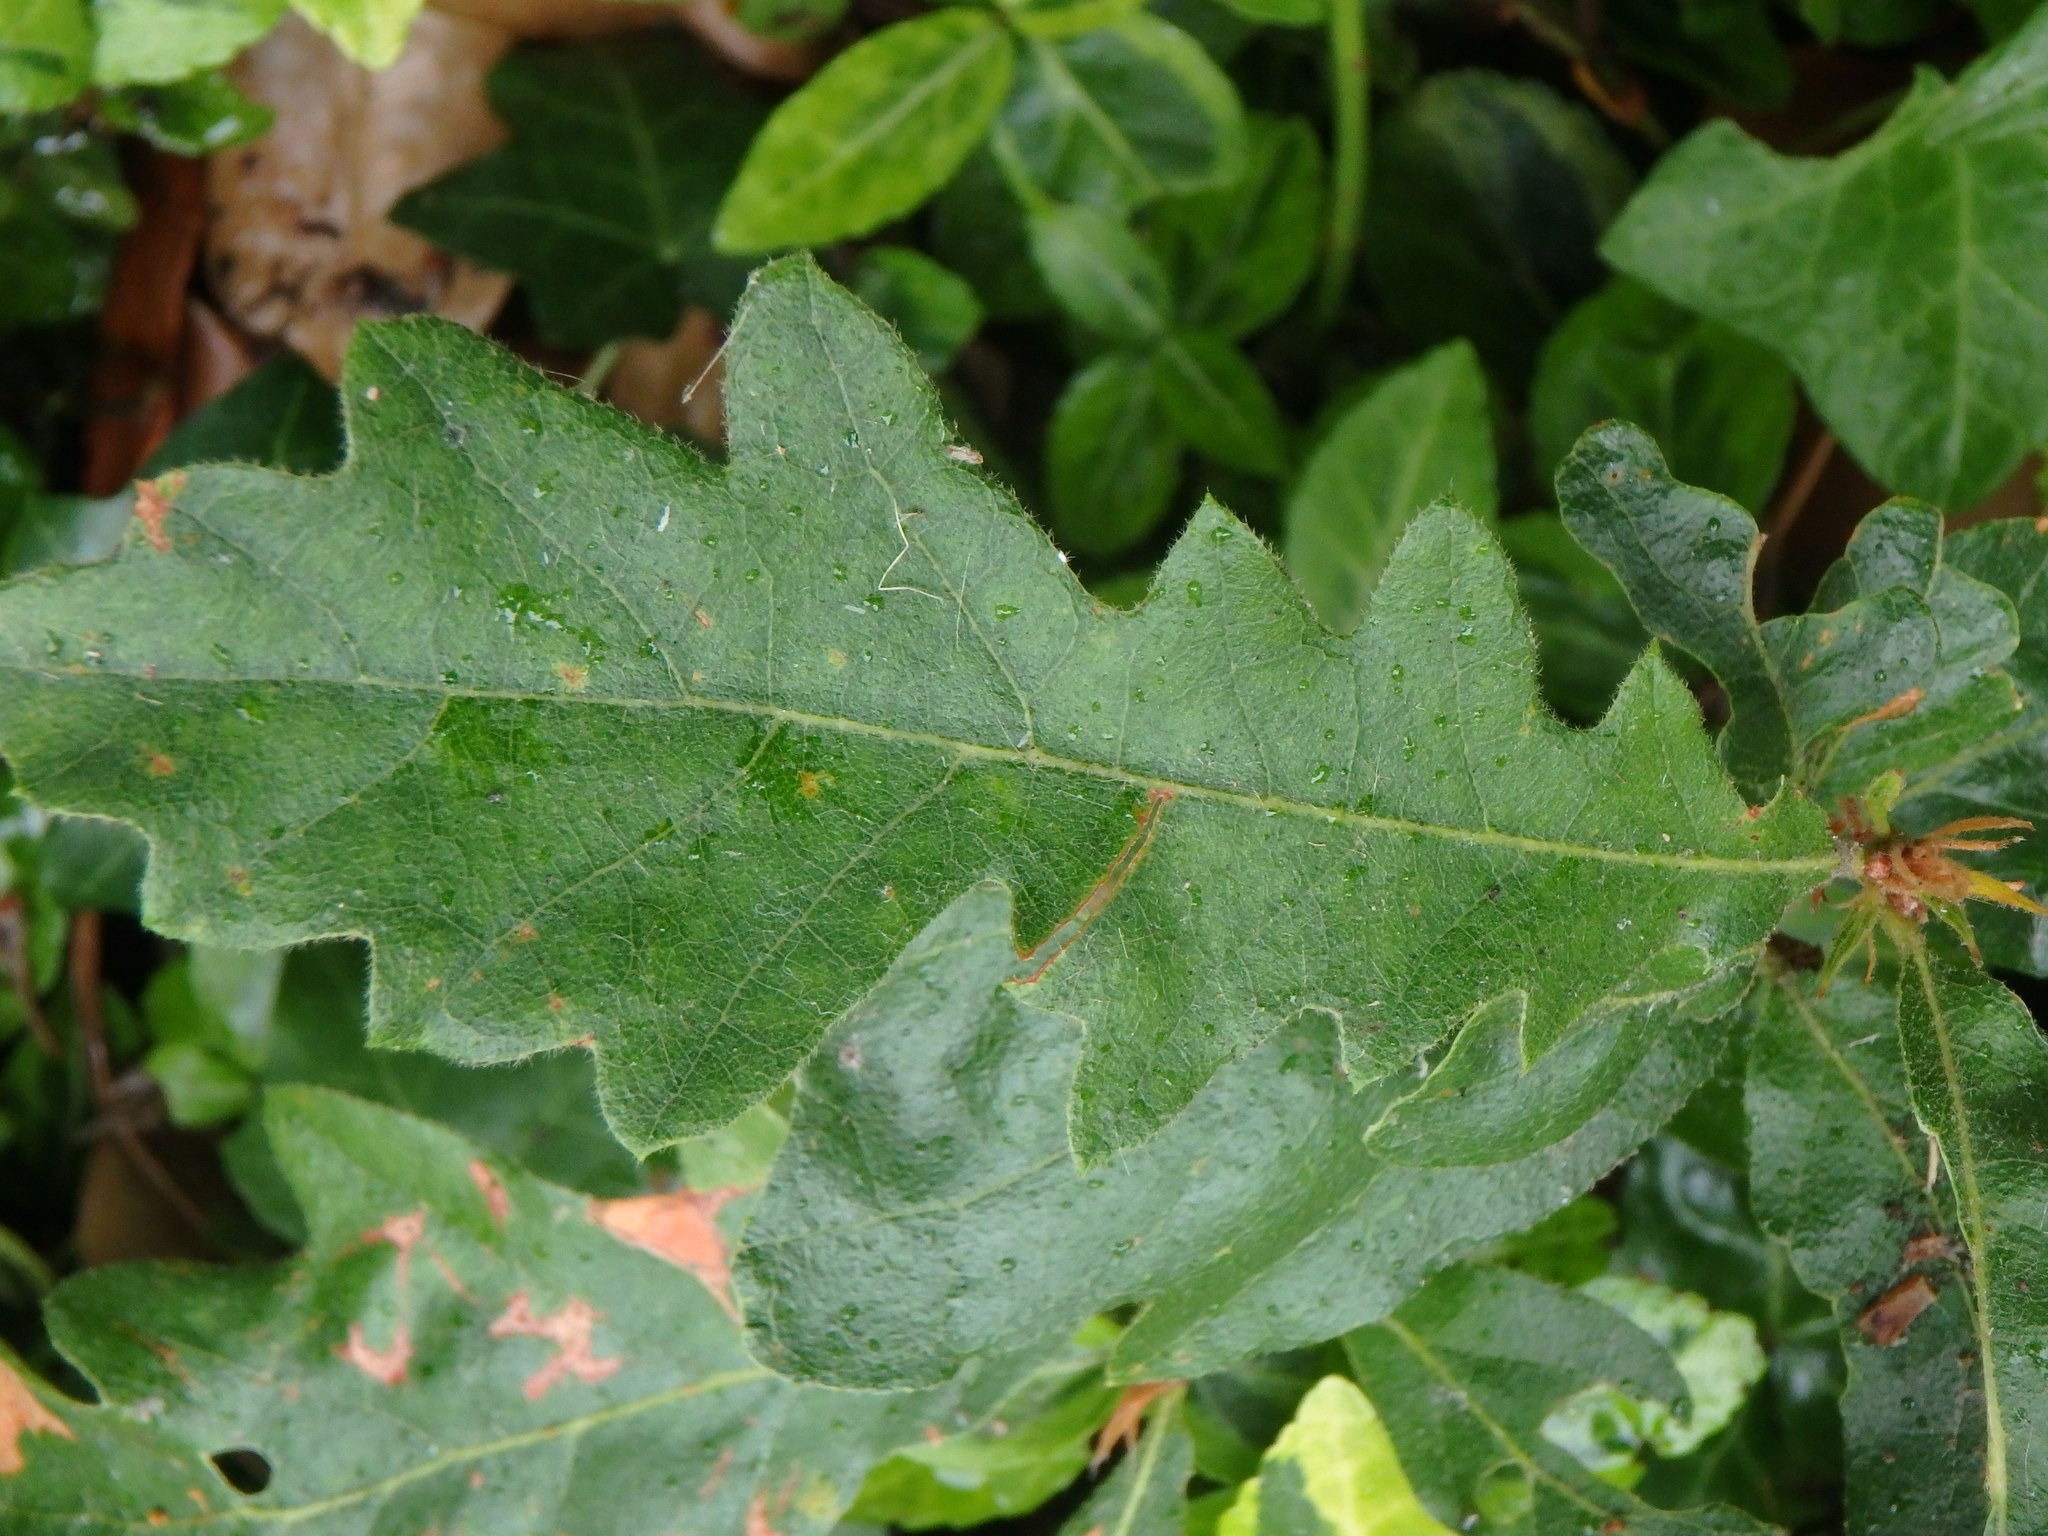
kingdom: Plantae
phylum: Tracheophyta
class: Magnoliopsida
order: Fagales
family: Fagaceae
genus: Quercus
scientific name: Quercus cerris
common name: Turkey oak
